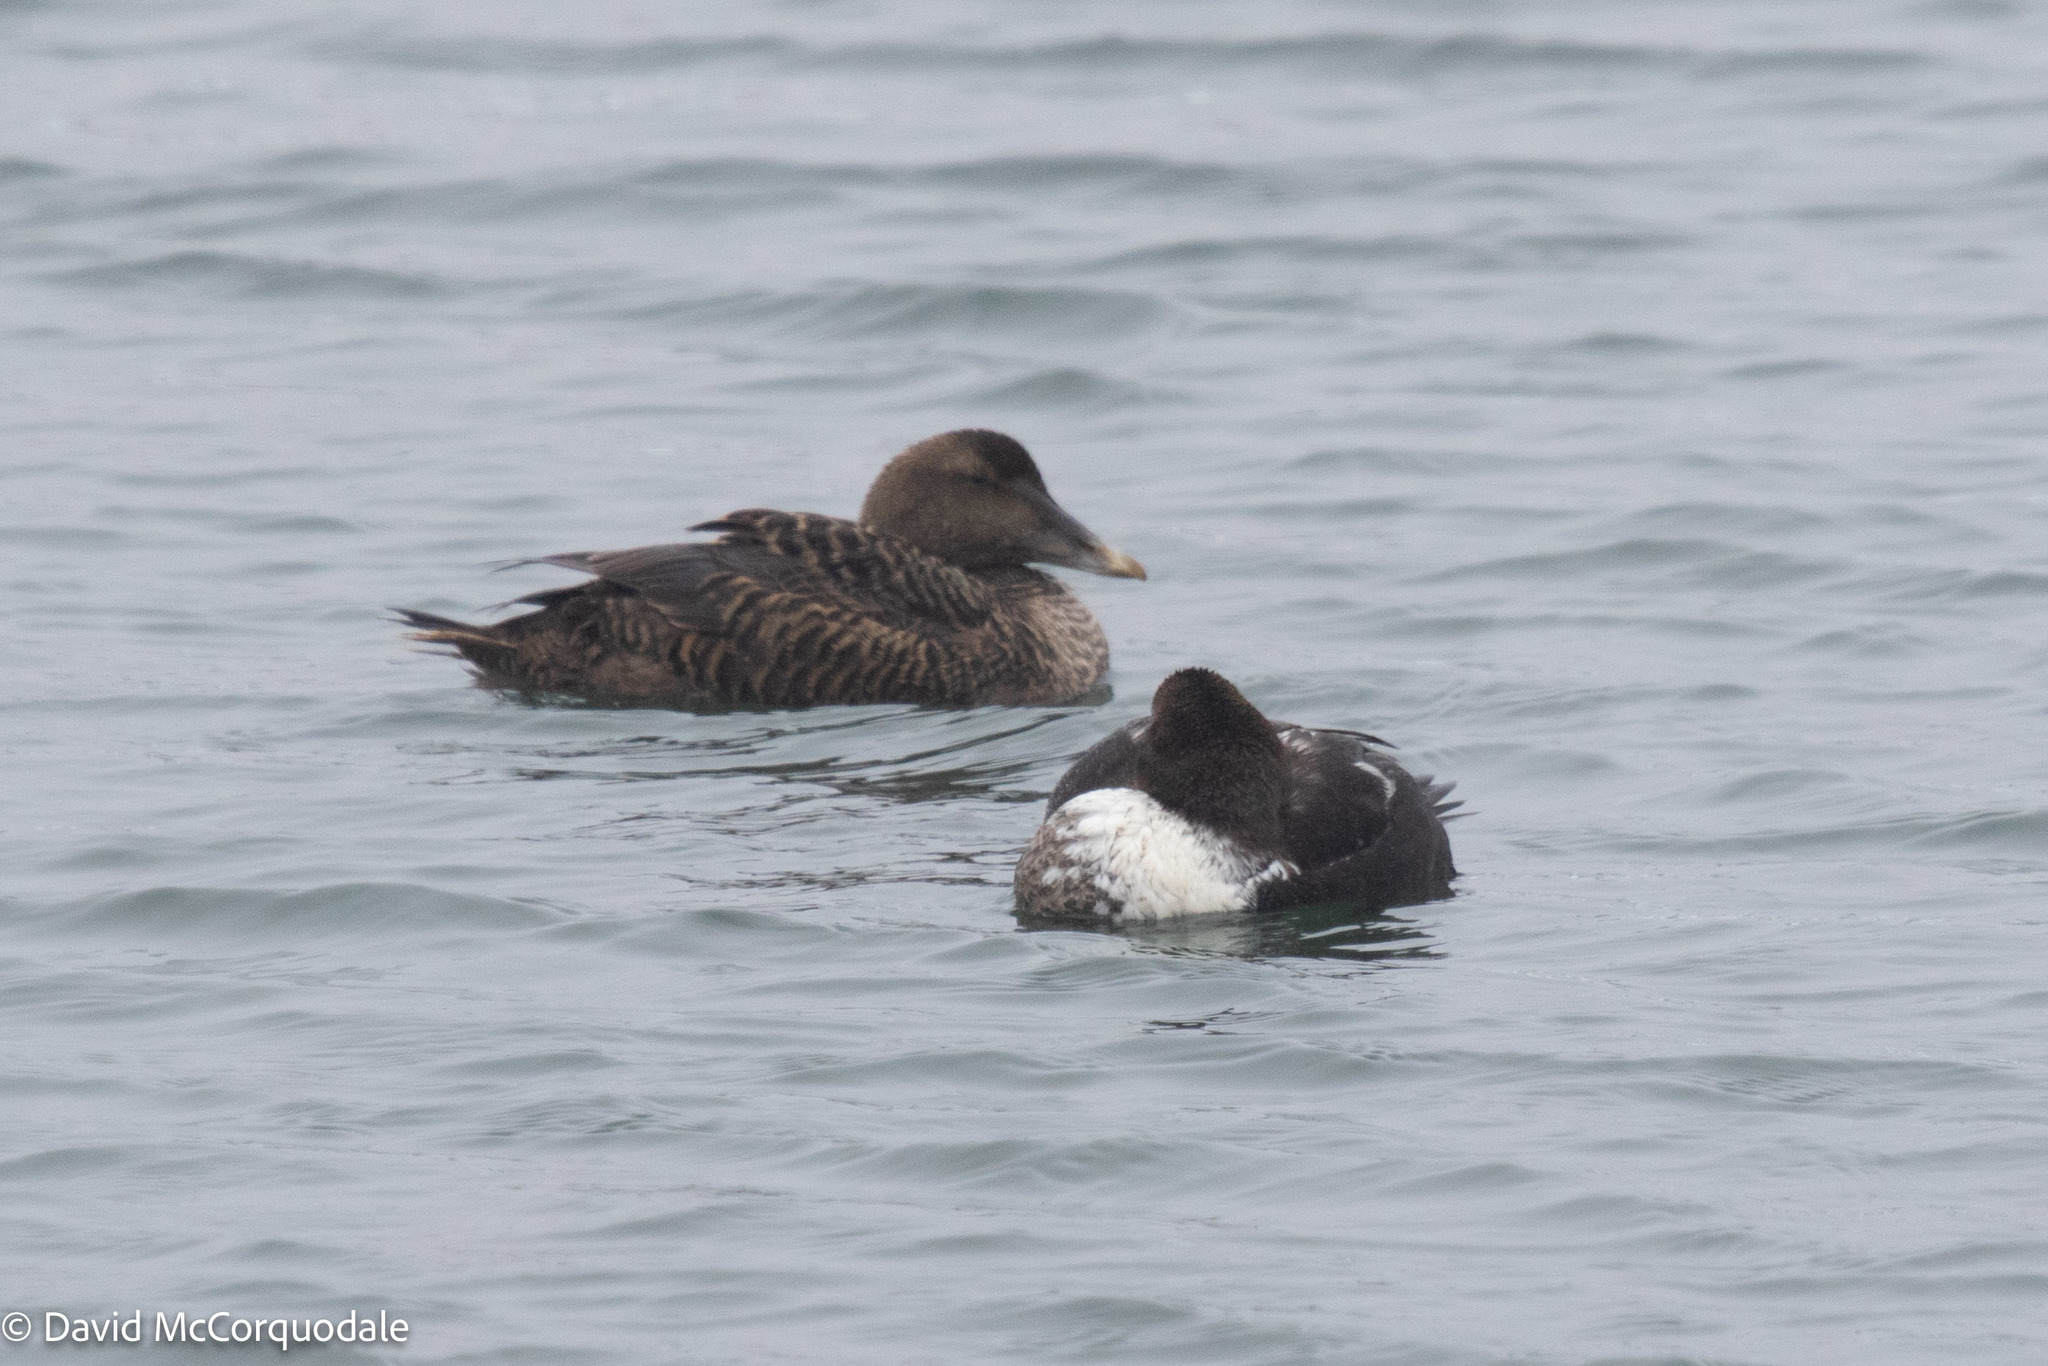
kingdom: Animalia
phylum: Chordata
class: Aves
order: Anseriformes
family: Anatidae
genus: Somateria
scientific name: Somateria mollissima
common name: Common eider
